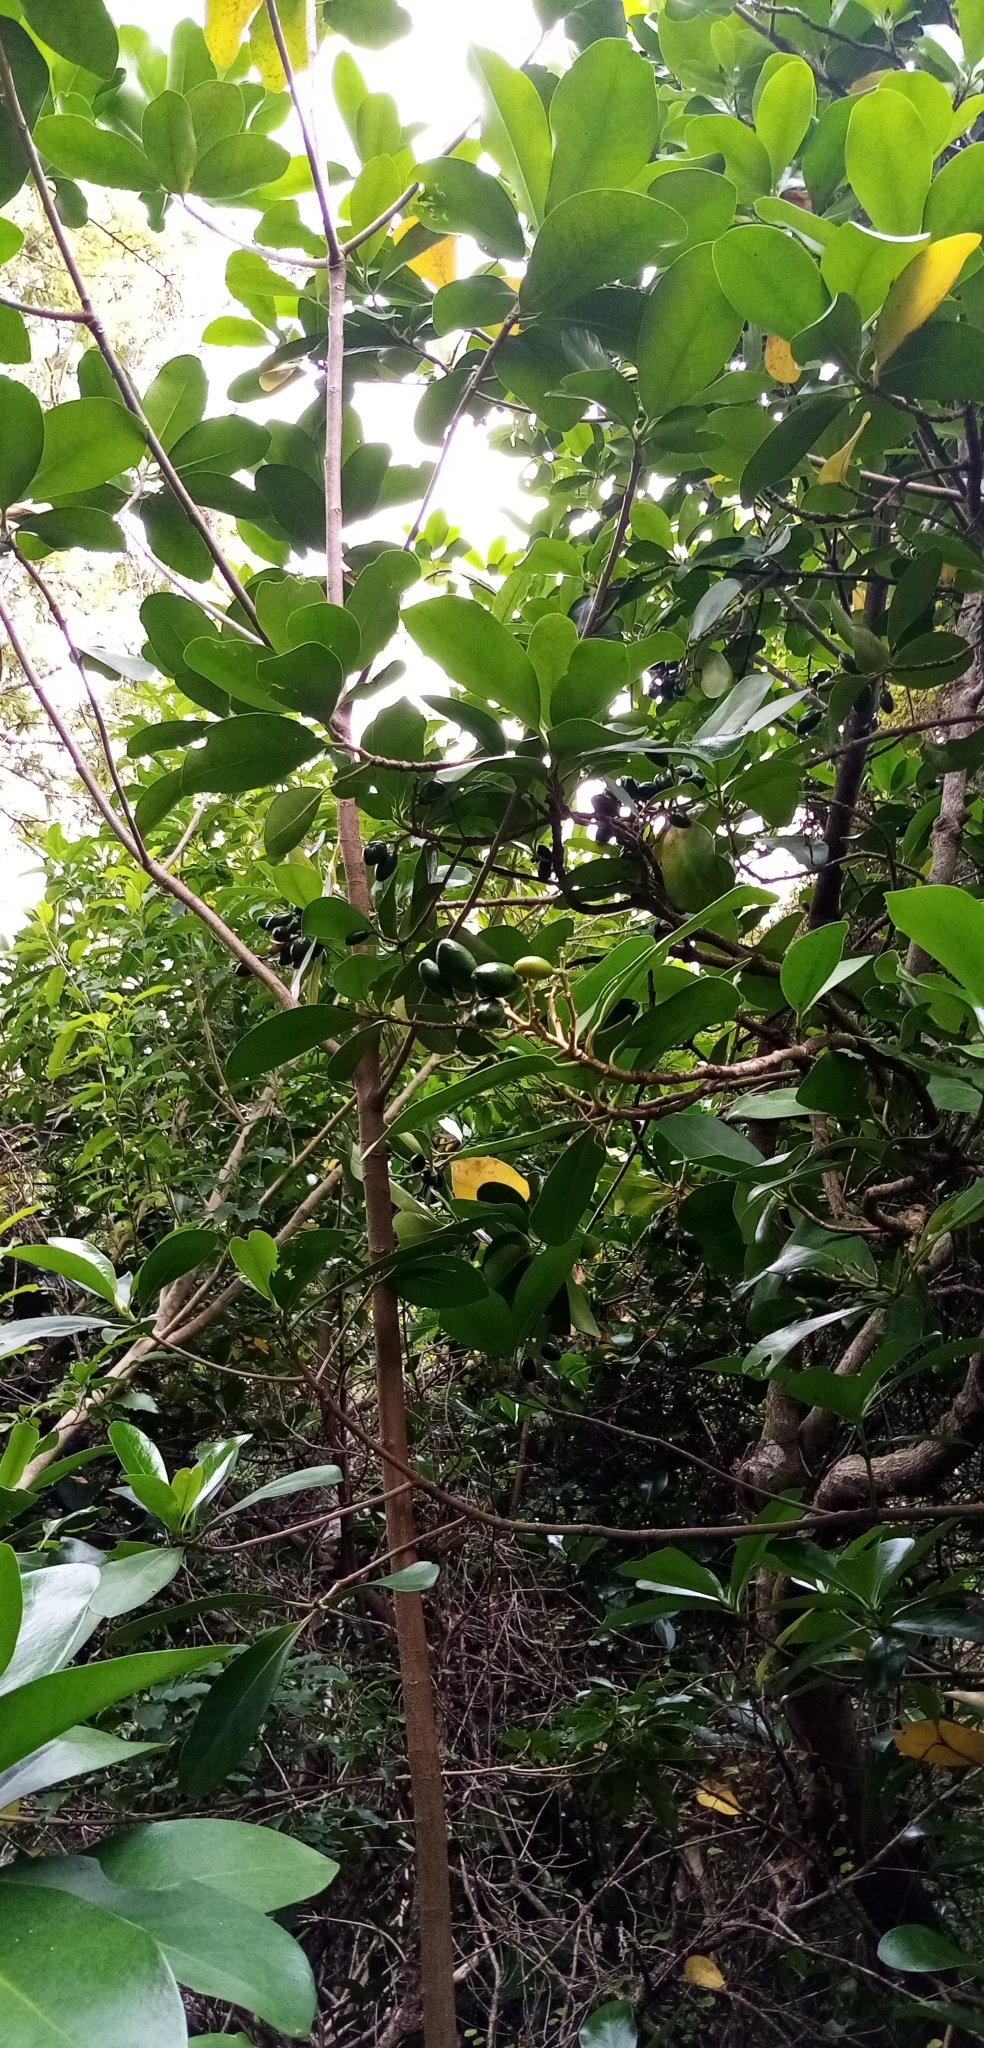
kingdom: Plantae
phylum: Tracheophyta
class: Magnoliopsida
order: Cucurbitales
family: Corynocarpaceae
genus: Corynocarpus
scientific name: Corynocarpus laevigatus
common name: New zealand laurel
